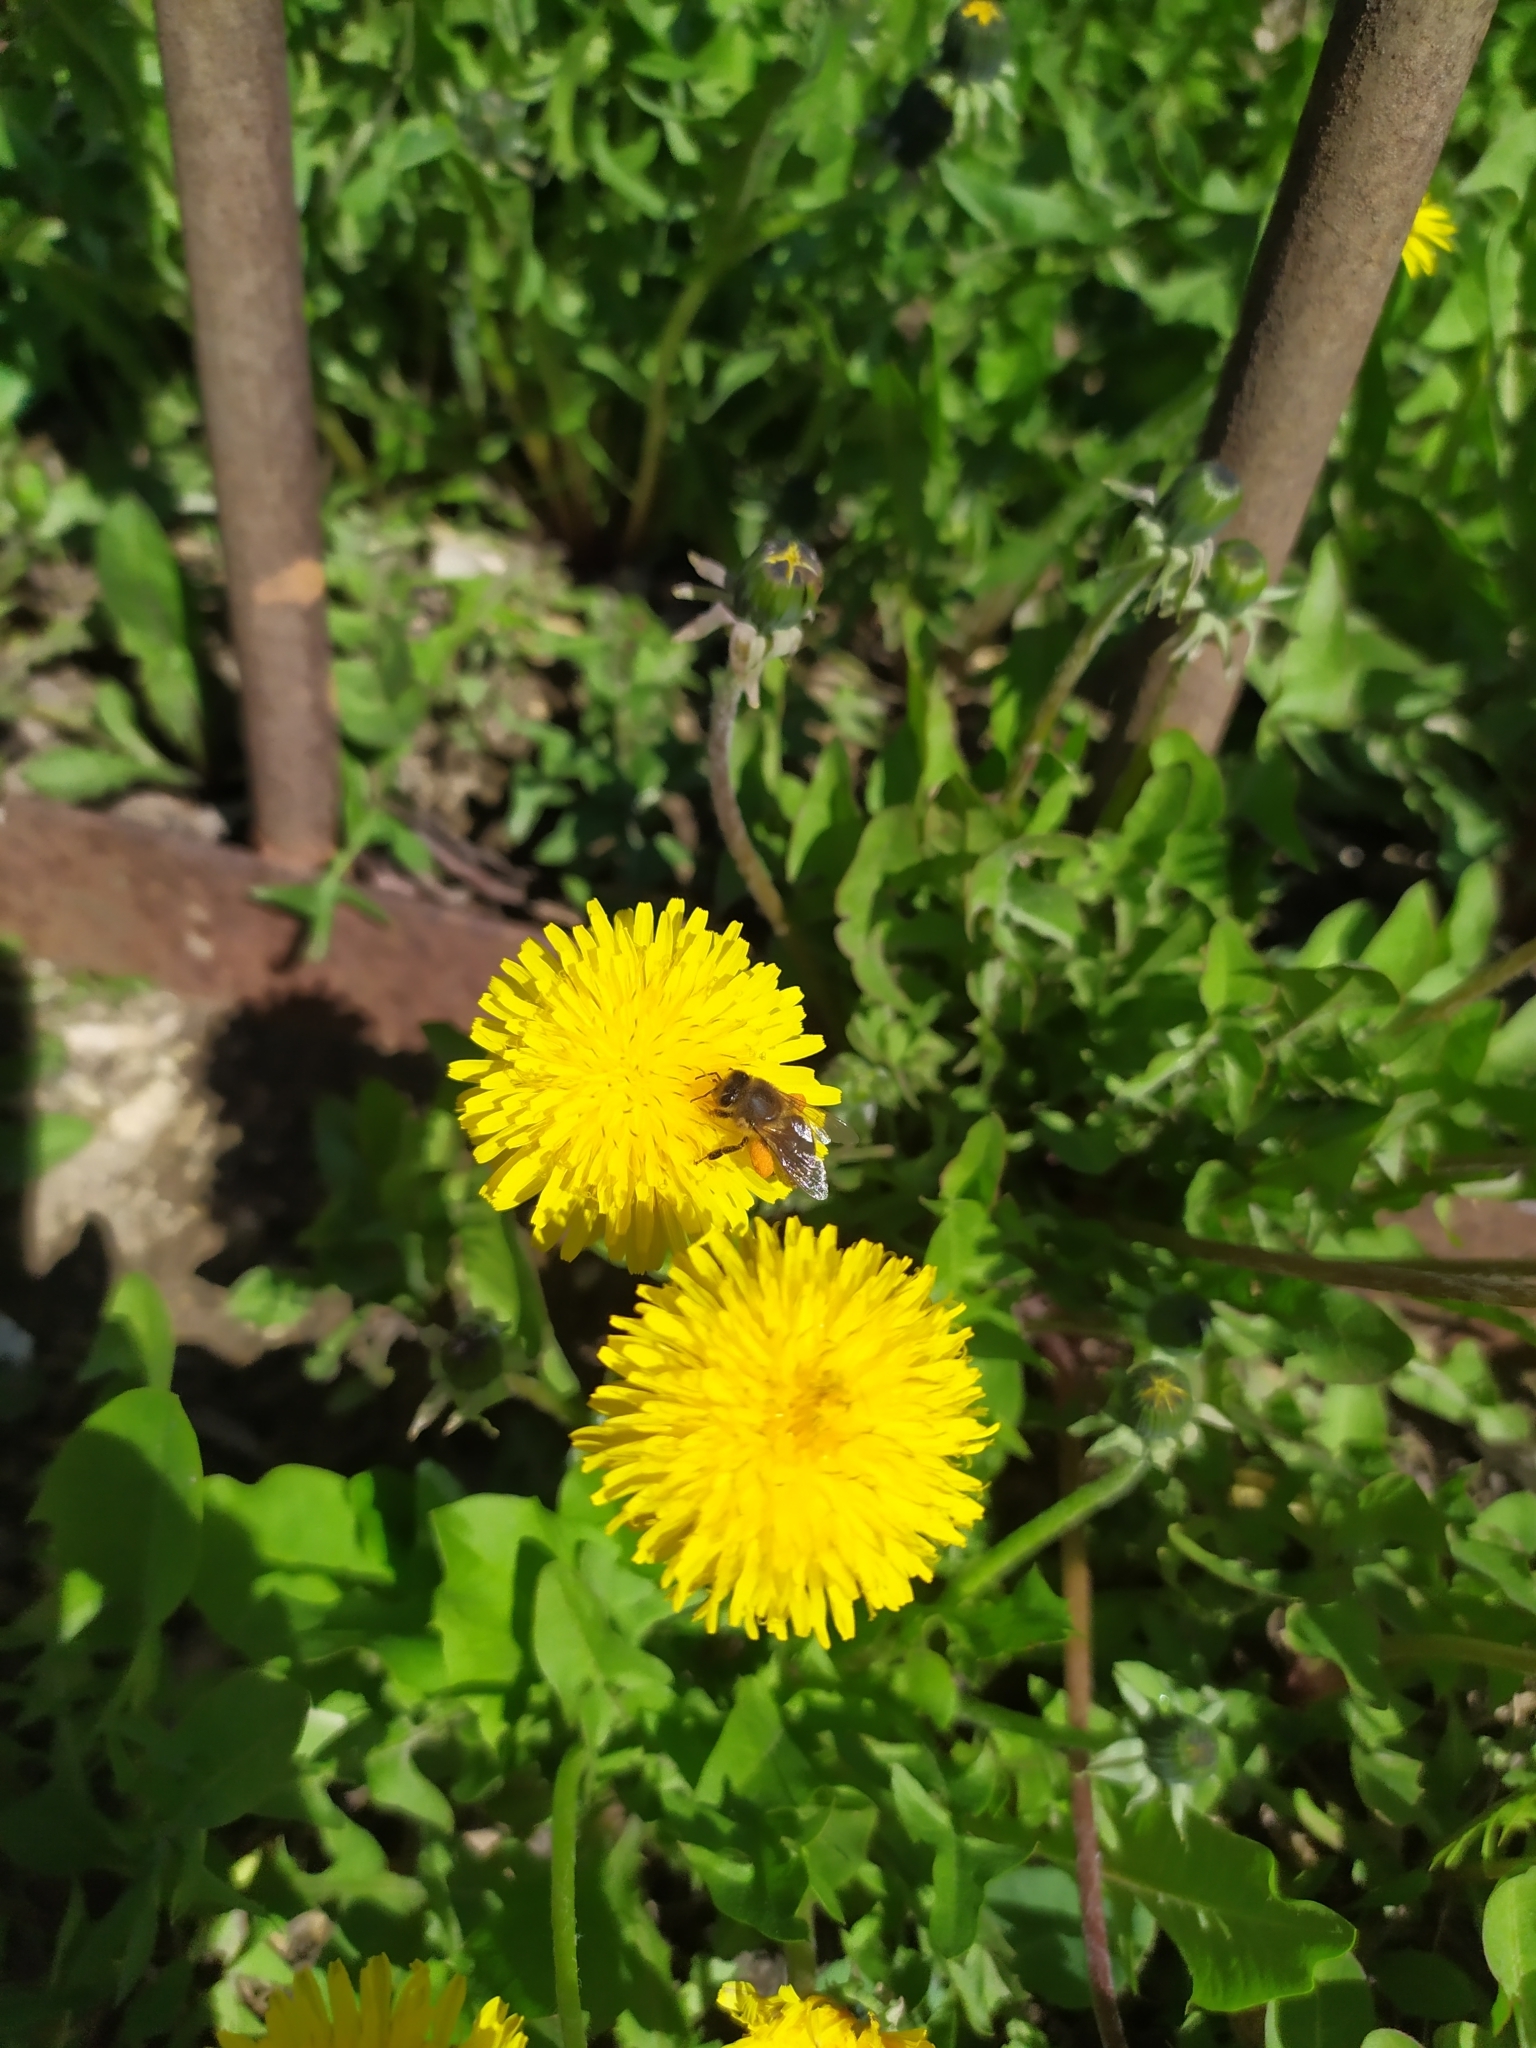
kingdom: Animalia
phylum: Arthropoda
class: Insecta
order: Hymenoptera
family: Apidae
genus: Apis
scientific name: Apis mellifera
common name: Honey bee
